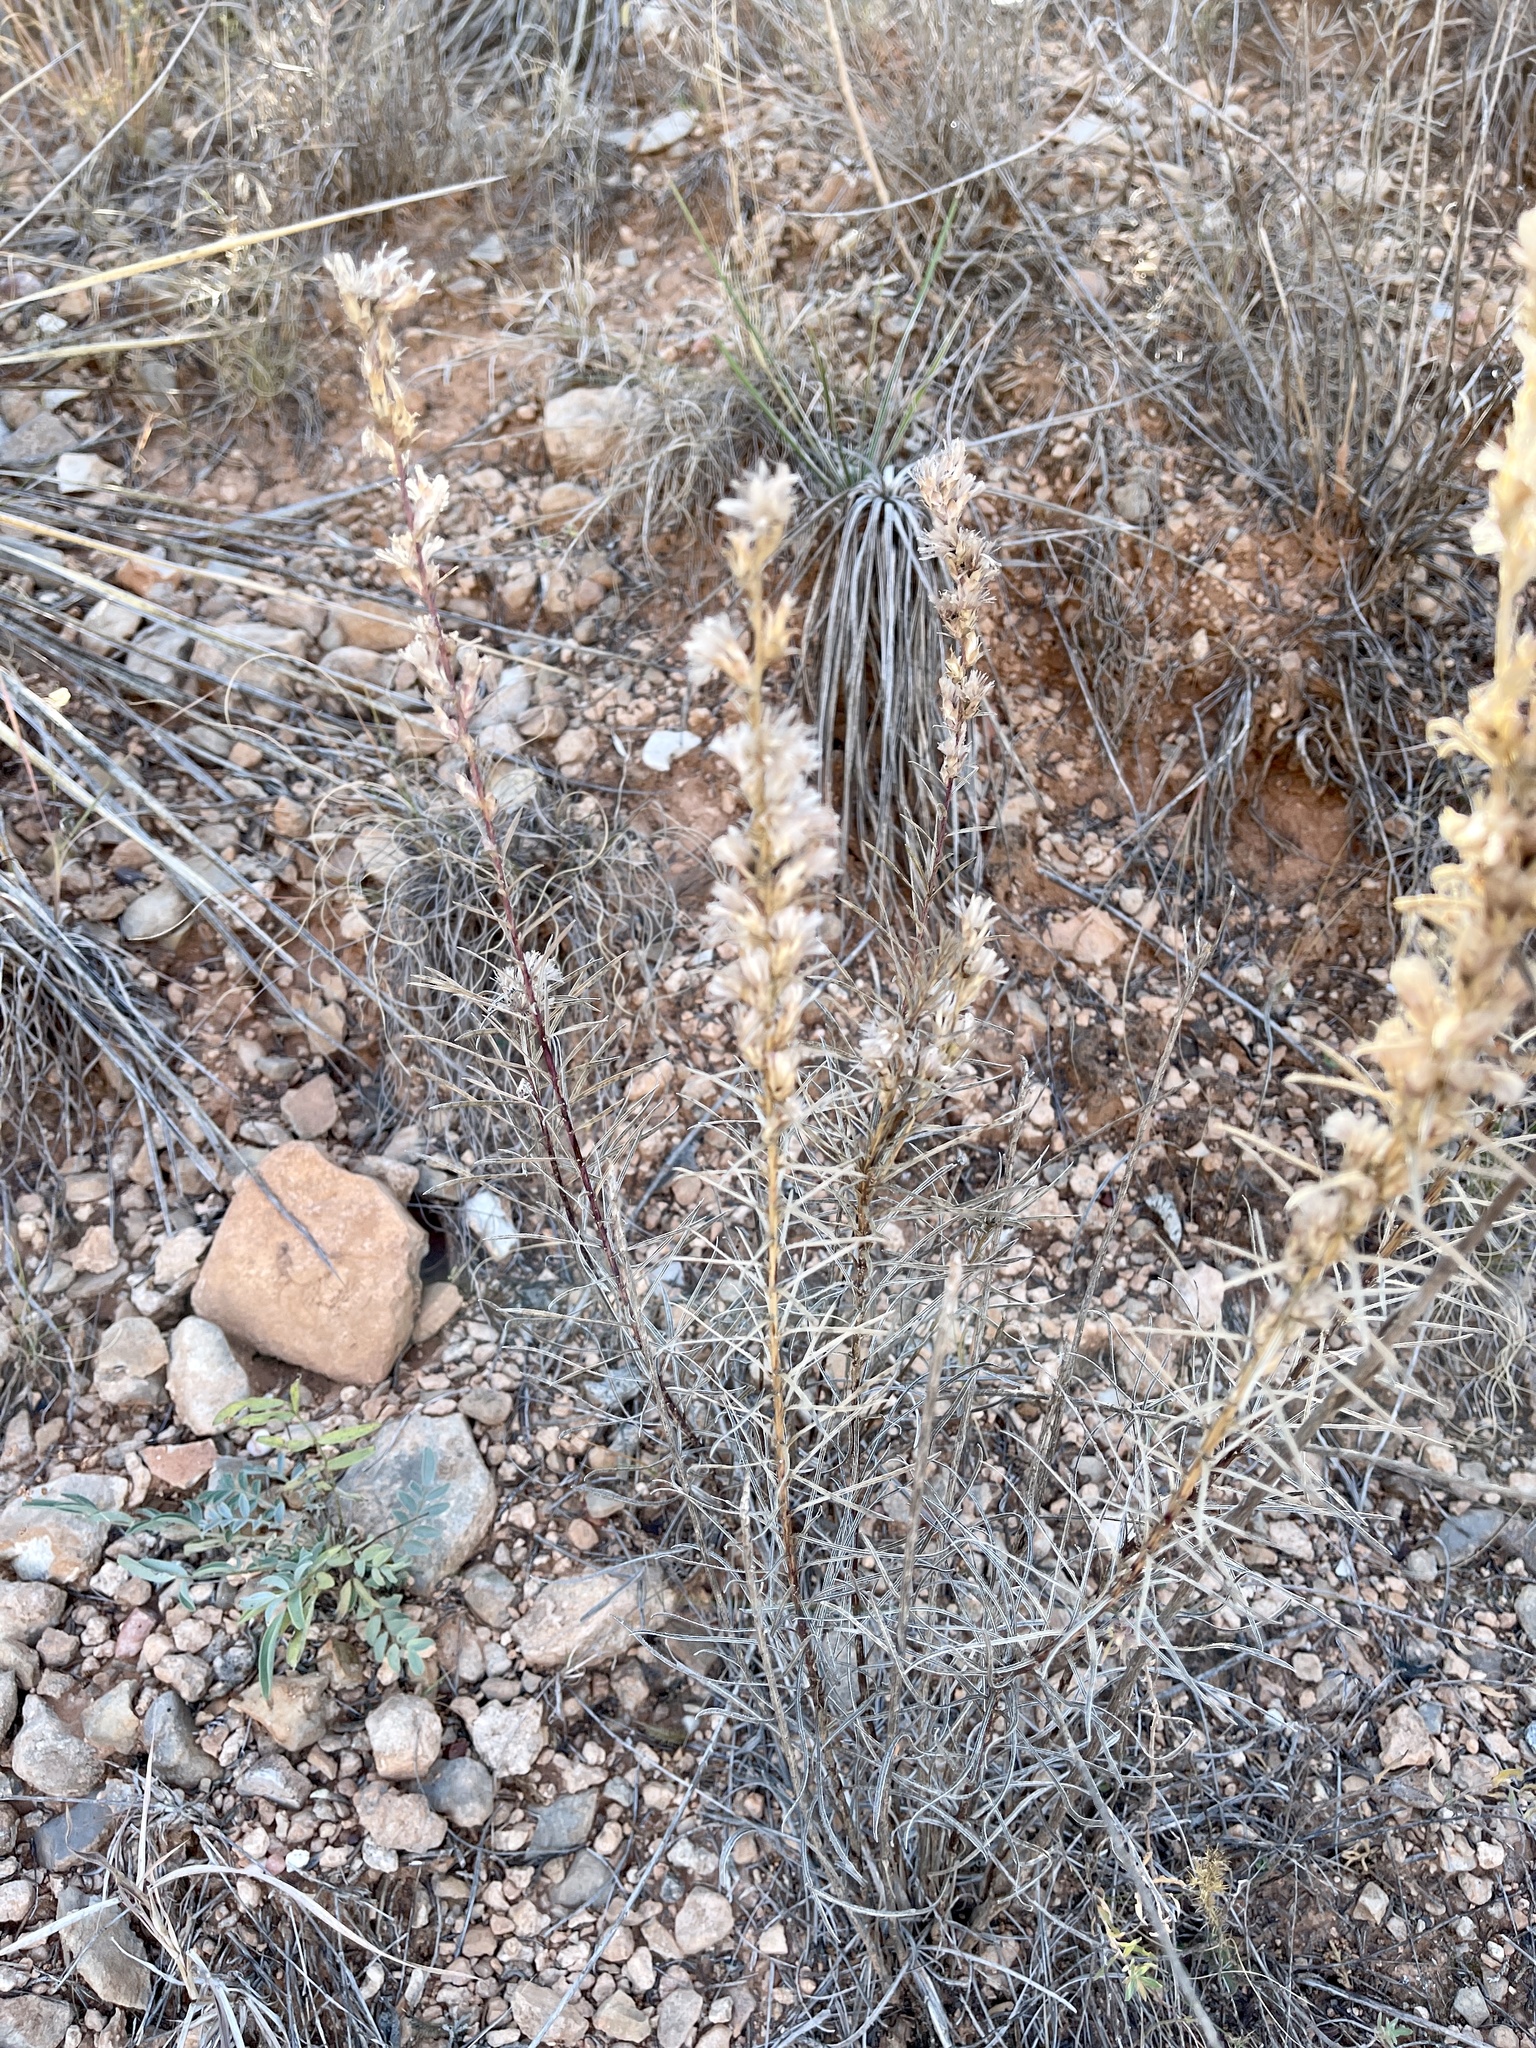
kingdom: Plantae
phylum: Tracheophyta
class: Magnoliopsida
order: Asterales
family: Asteraceae
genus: Liatris
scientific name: Liatris punctata
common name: Dotted gayfeather
